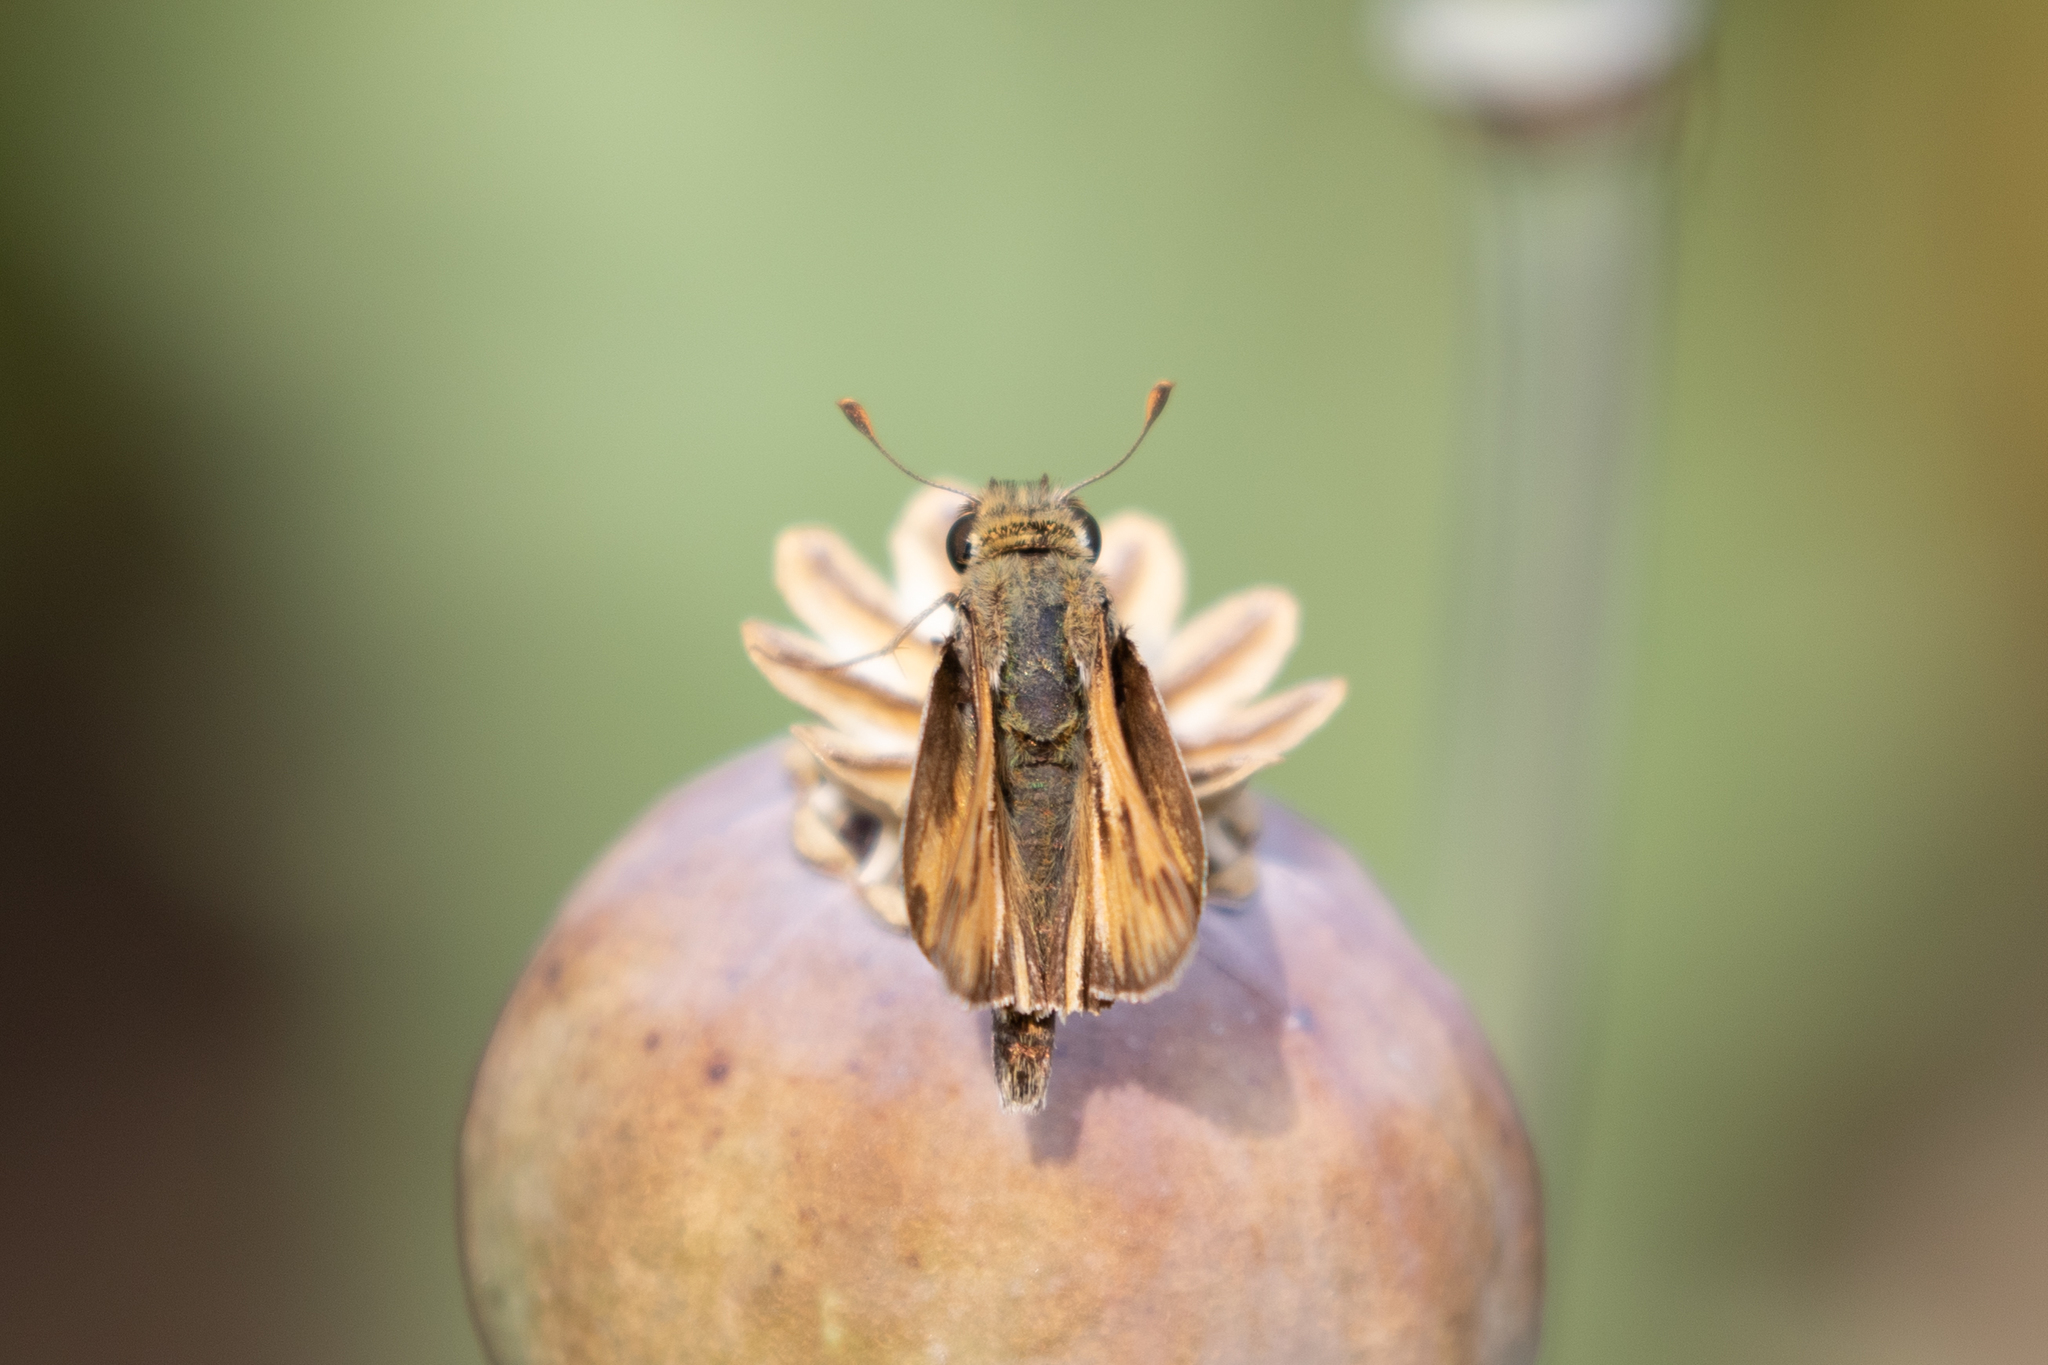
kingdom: Animalia
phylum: Arthropoda
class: Insecta
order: Lepidoptera
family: Hesperiidae
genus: Hylephila
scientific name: Hylephila phyleus
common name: Fiery skipper
